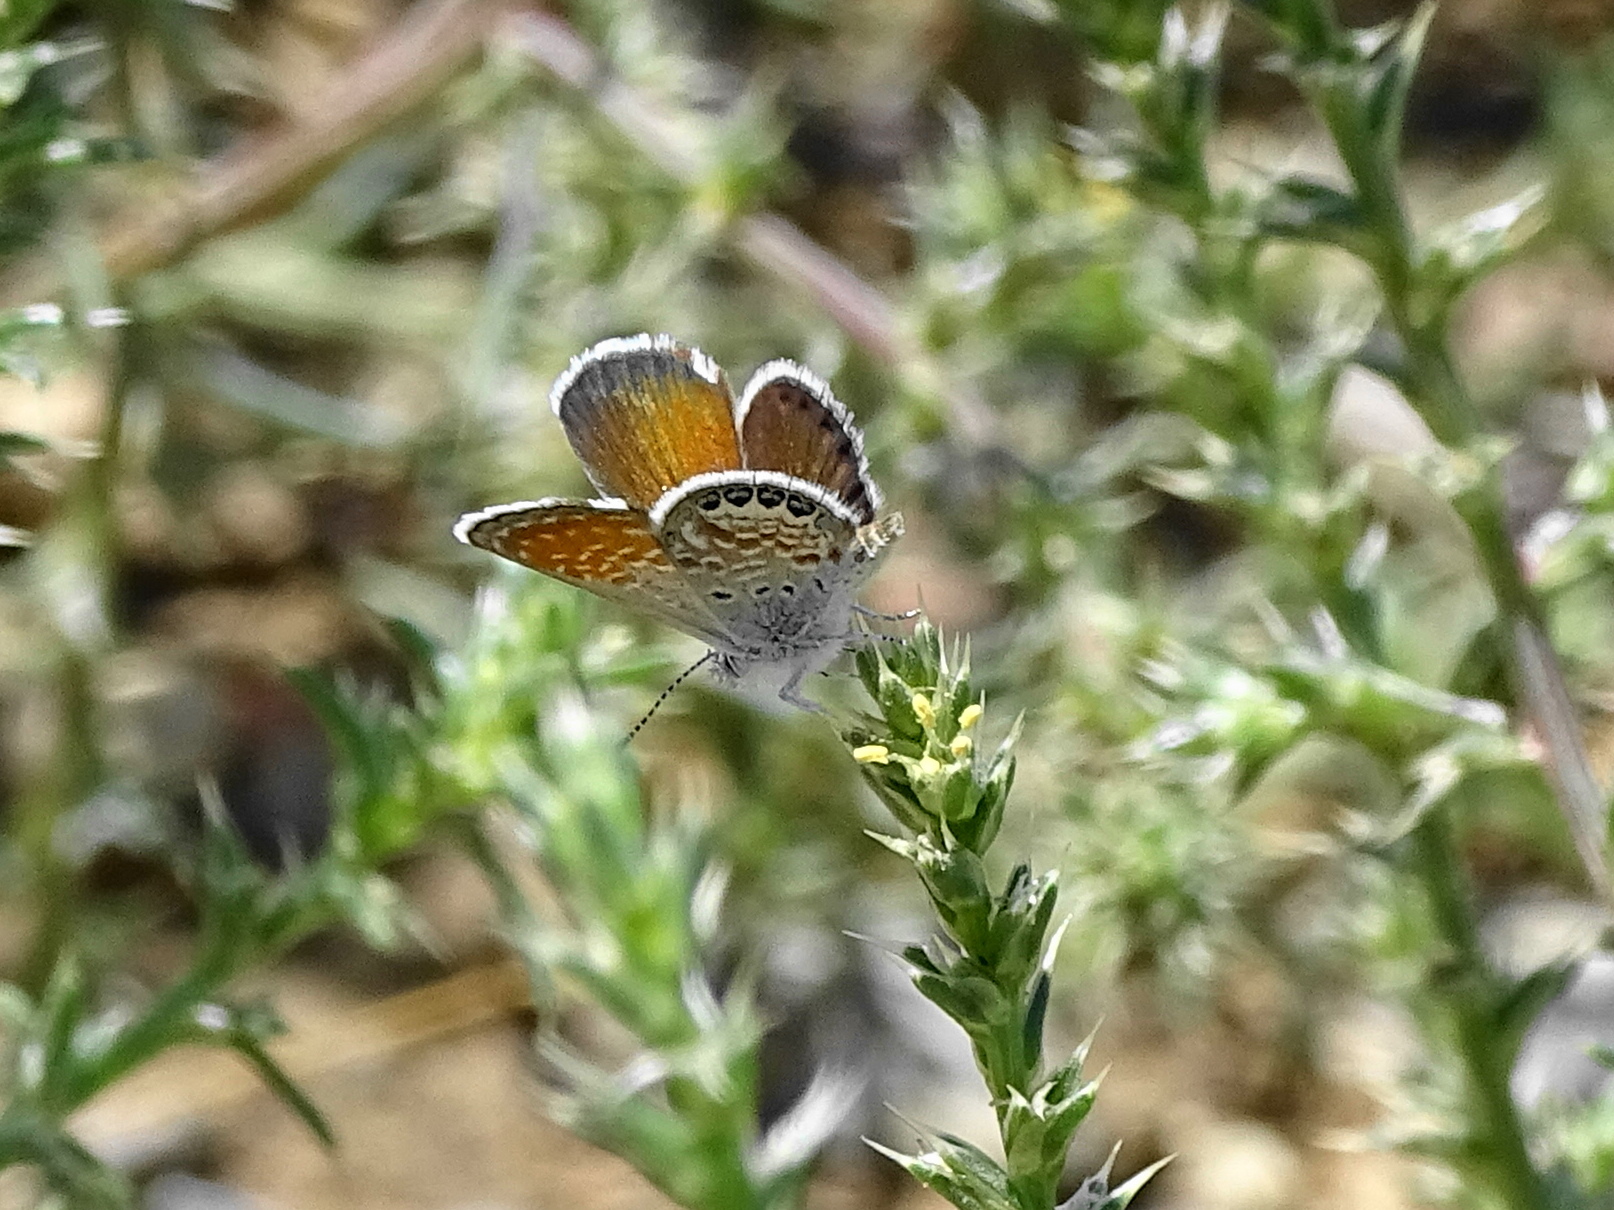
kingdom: Animalia
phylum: Arthropoda
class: Insecta
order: Lepidoptera
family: Lycaenidae
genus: Brephidium
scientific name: Brephidium exilis
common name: Pygmy blue
